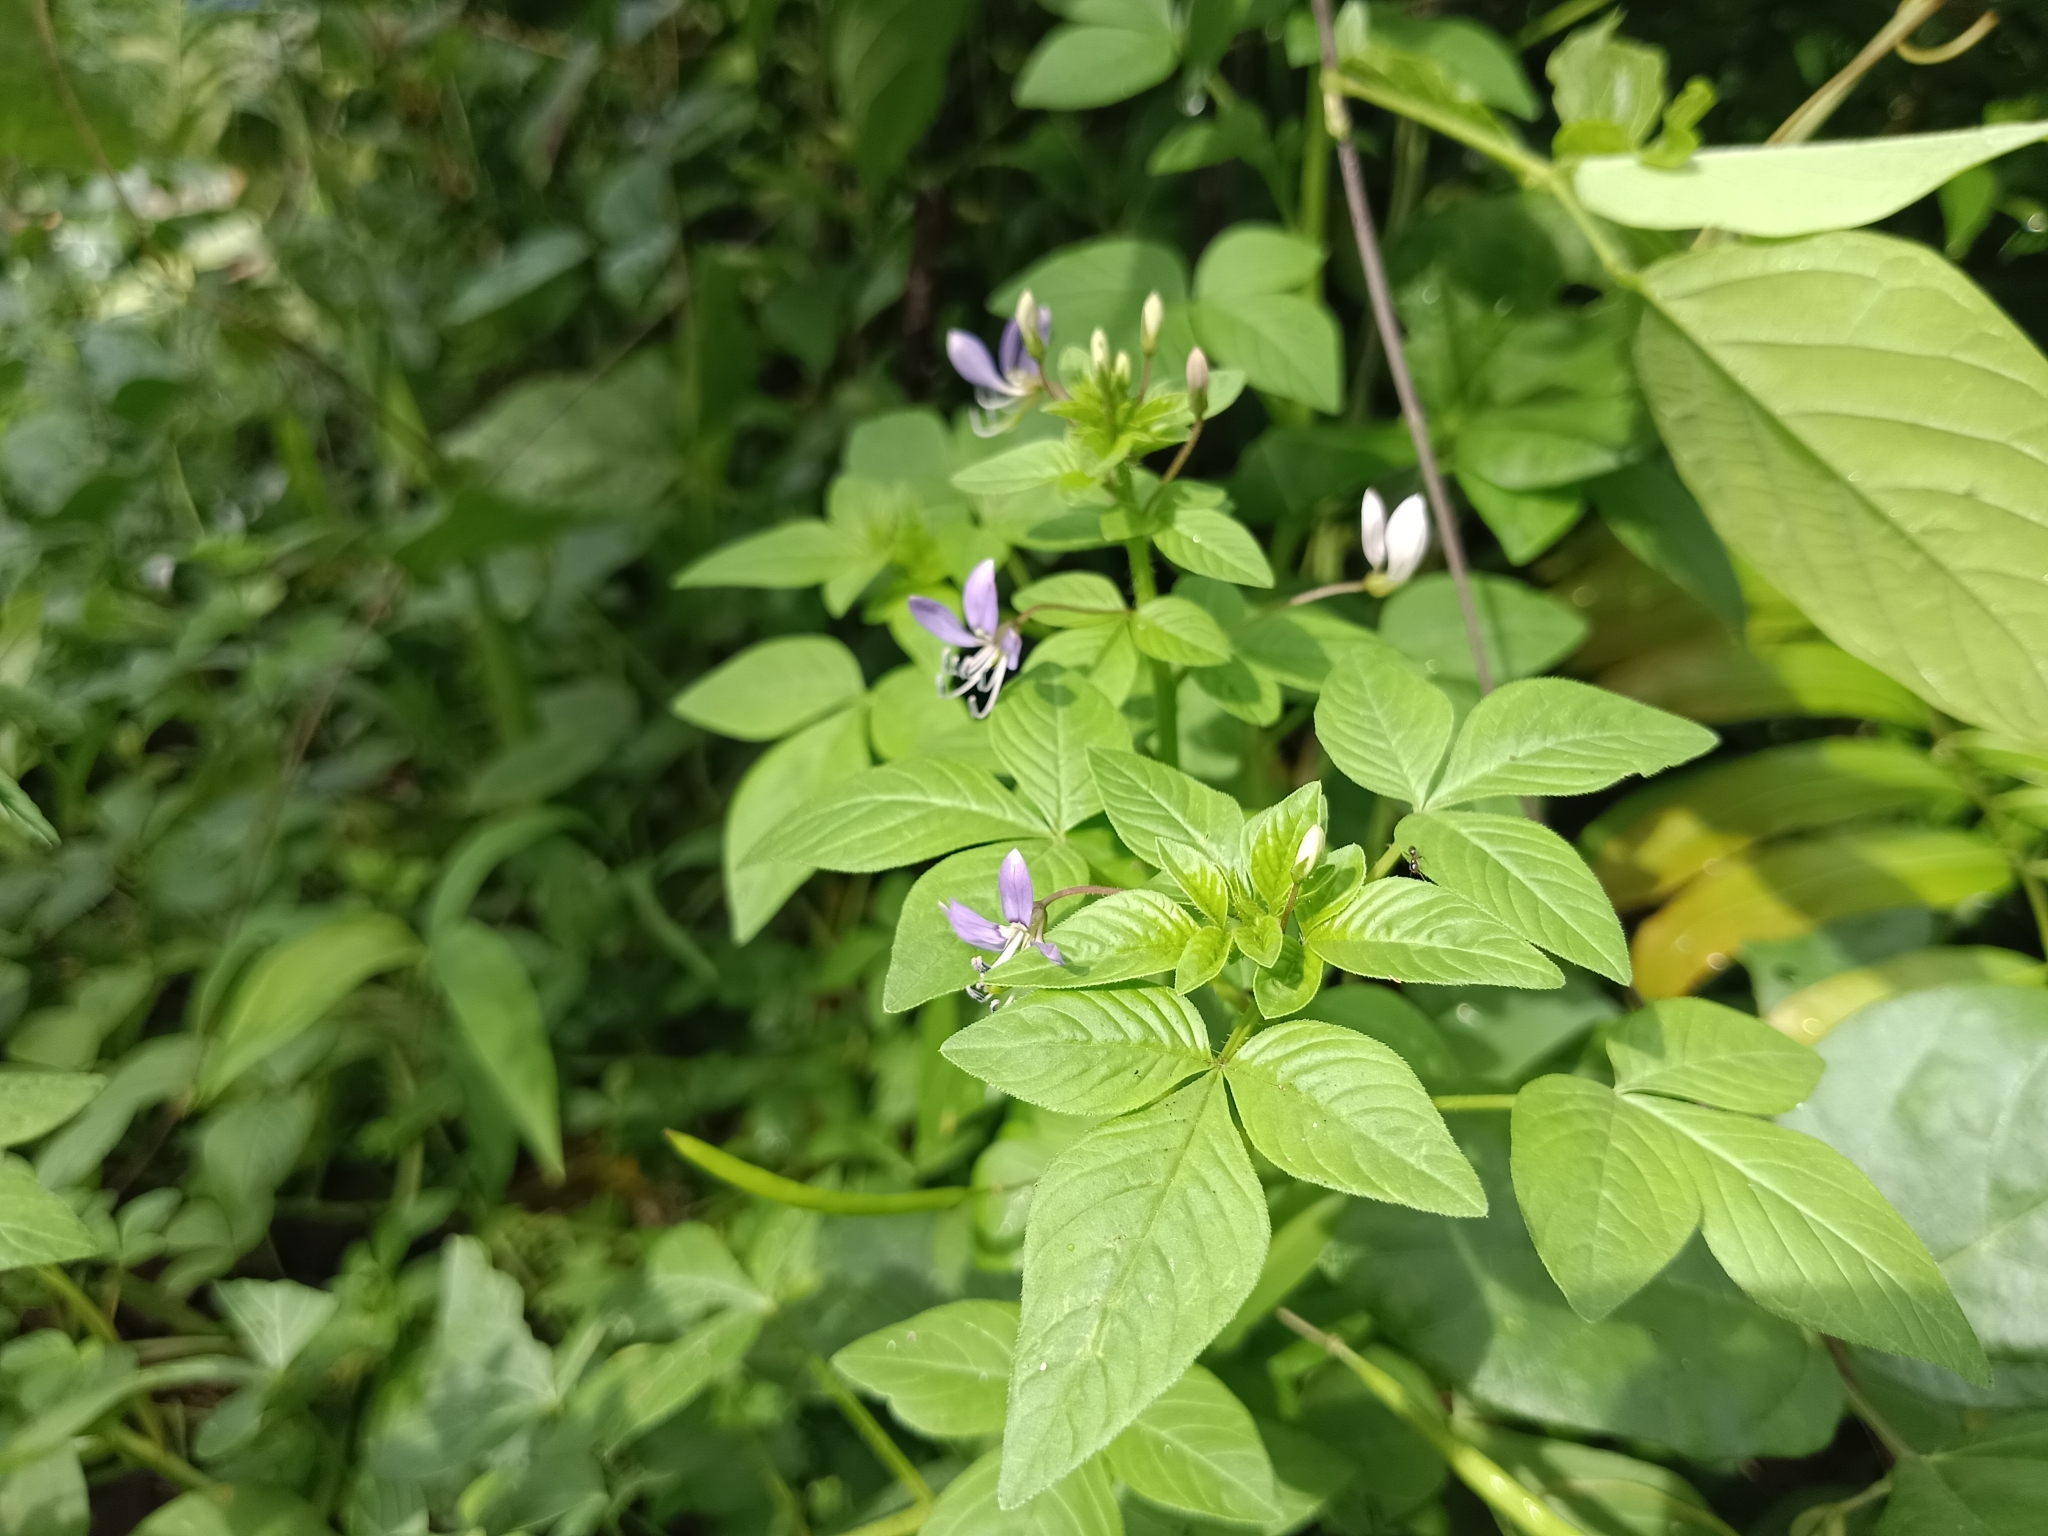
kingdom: Plantae
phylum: Tracheophyta
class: Magnoliopsida
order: Brassicales
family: Cleomaceae
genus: Sieruela
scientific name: Sieruela rutidosperma
